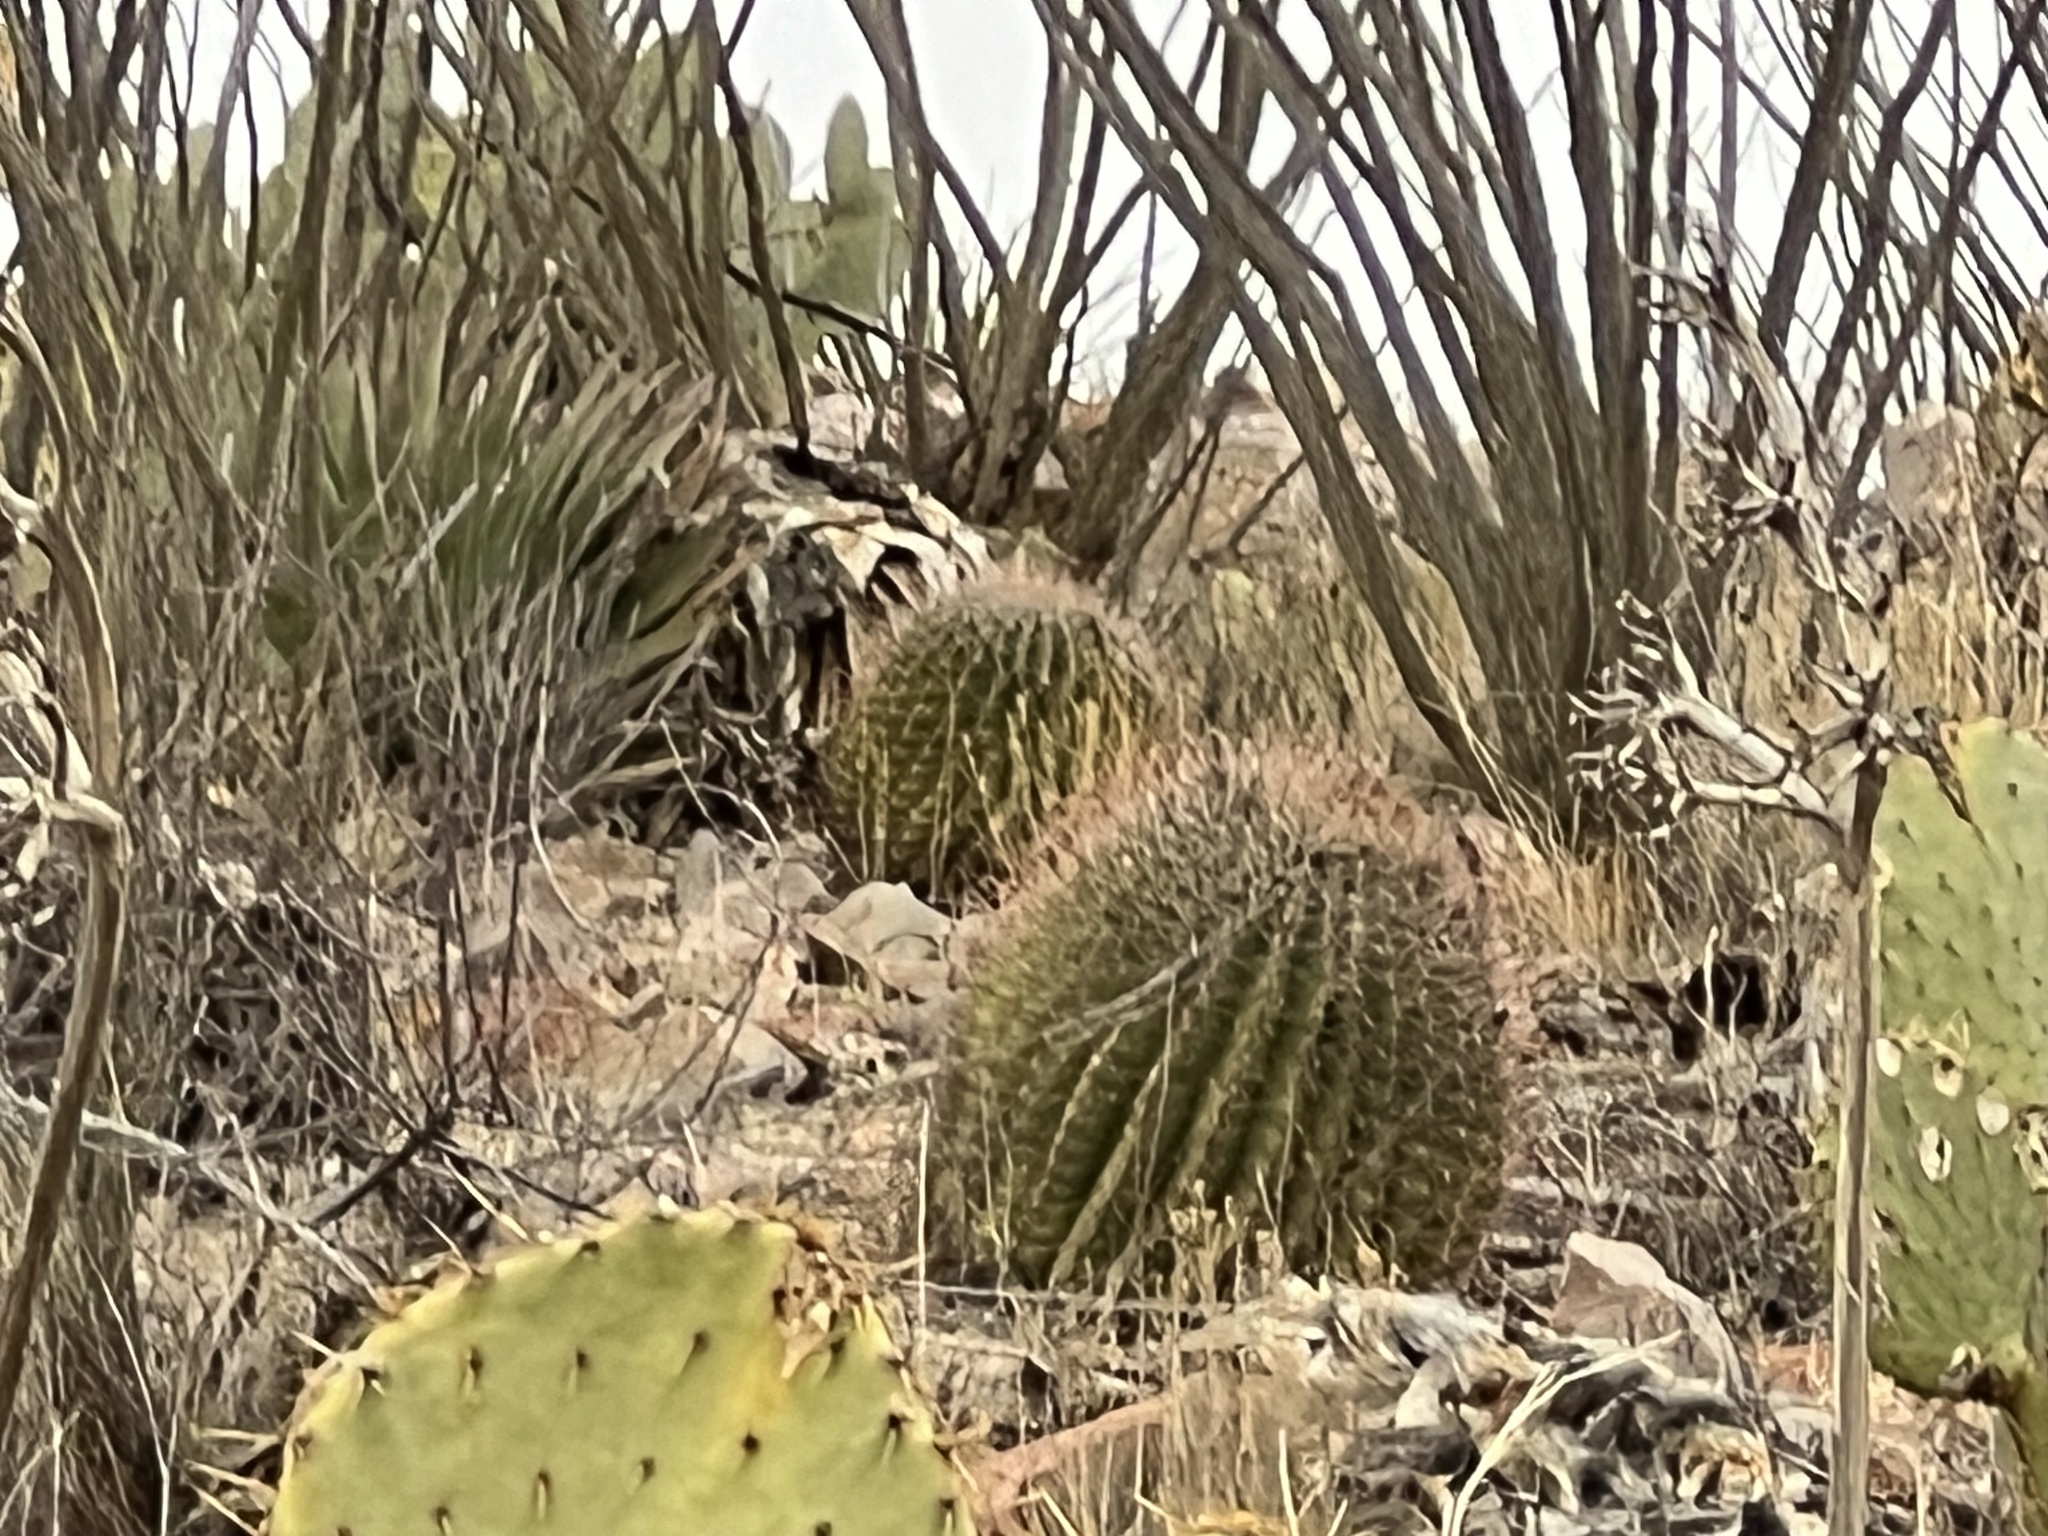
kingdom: Plantae
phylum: Tracheophyta
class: Magnoliopsida
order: Caryophyllales
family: Cactaceae
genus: Ferocactus
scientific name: Ferocactus wislizeni
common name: Candy barrel cactus
